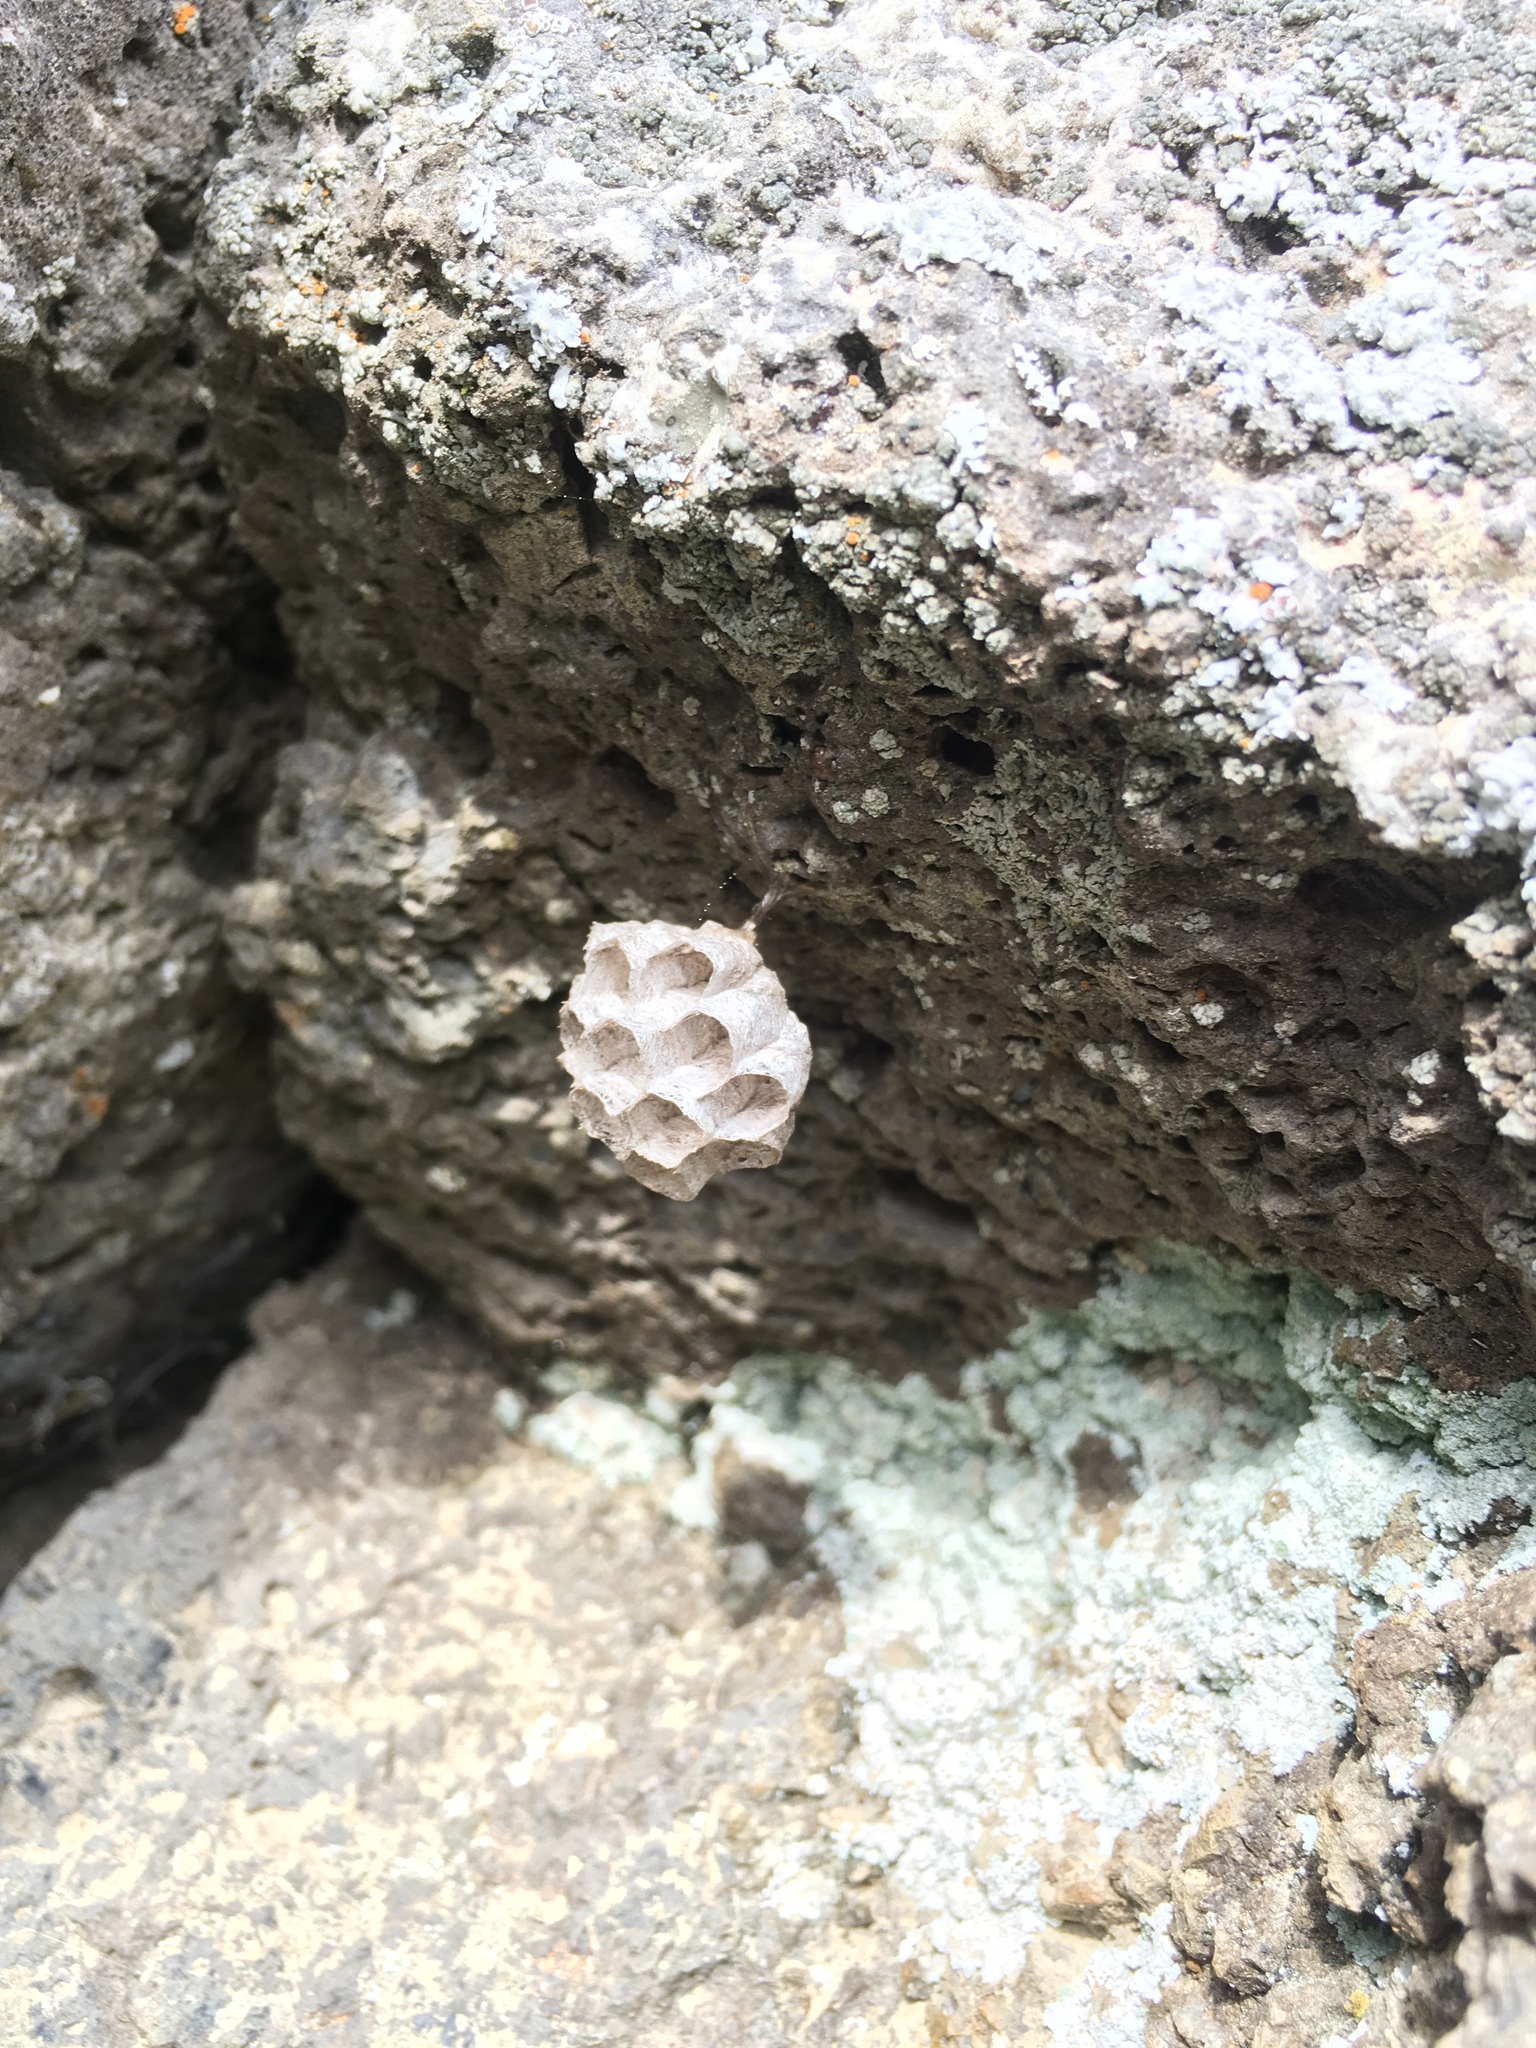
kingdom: Animalia
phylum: Arthropoda
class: Insecta
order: Hymenoptera
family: Eumenidae
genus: Polistes
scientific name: Polistes
